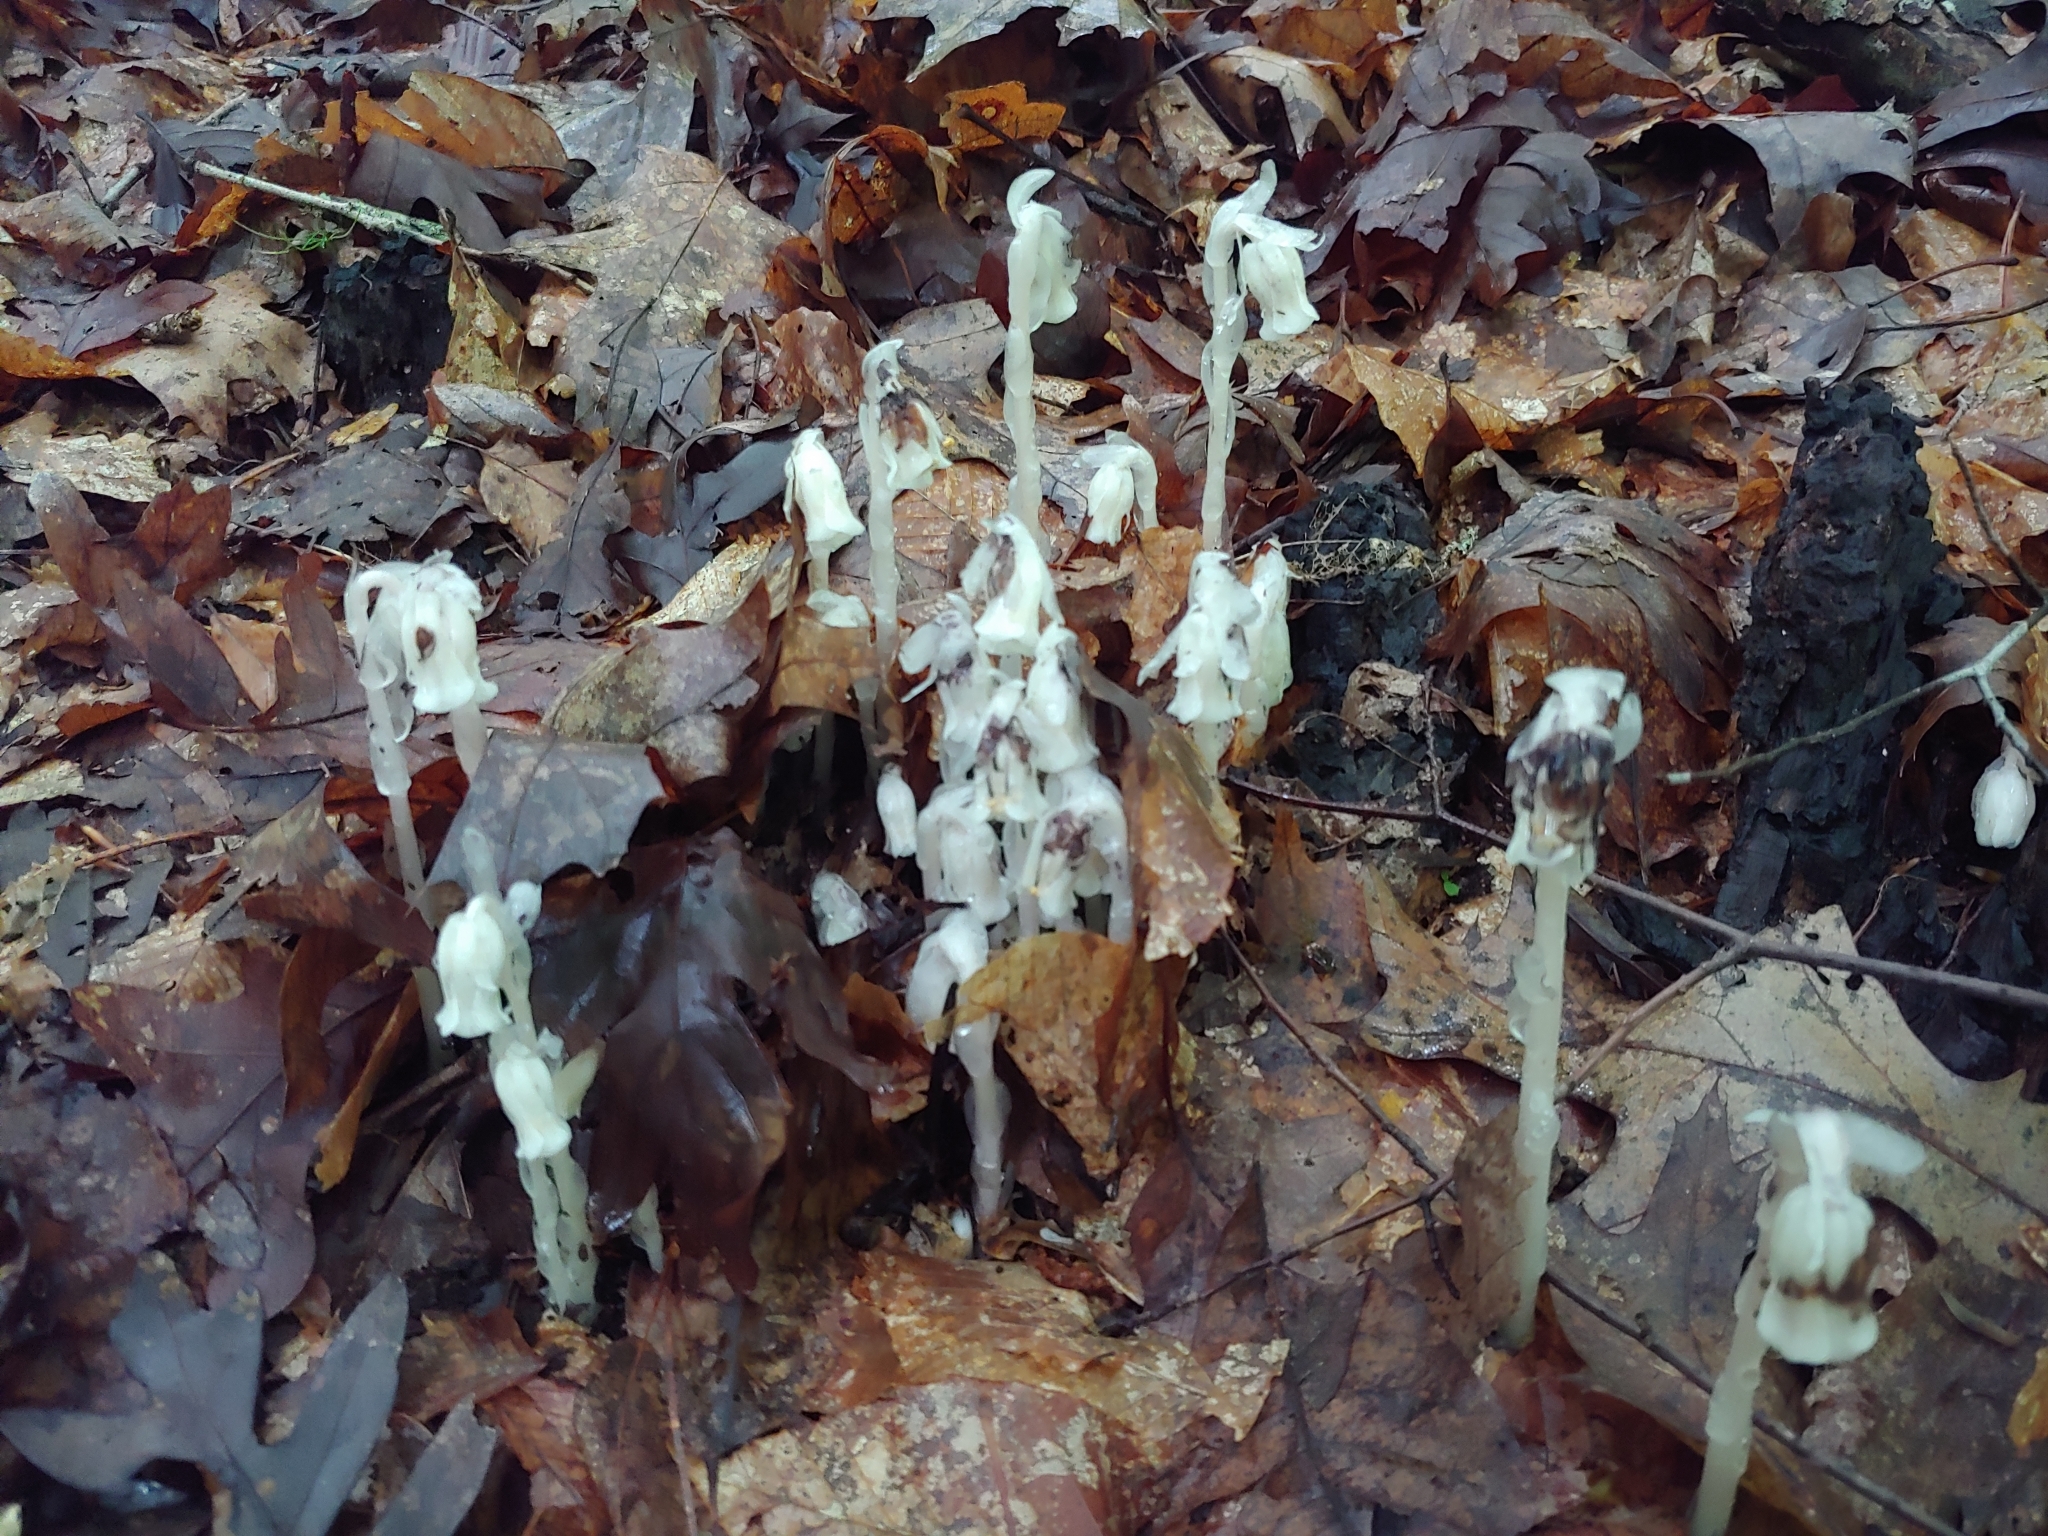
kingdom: Plantae
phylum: Tracheophyta
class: Magnoliopsida
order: Ericales
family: Ericaceae
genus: Monotropa
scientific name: Monotropa uniflora
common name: Convulsion root
